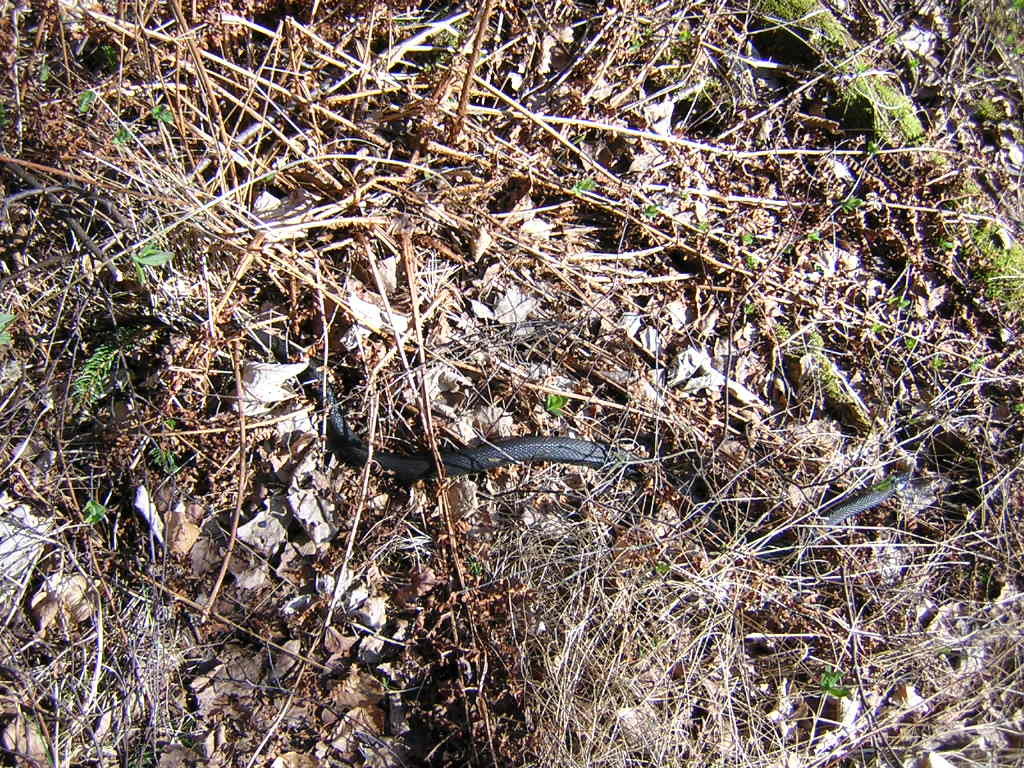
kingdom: Animalia
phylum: Chordata
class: Squamata
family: Colubridae
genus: Natrix
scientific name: Natrix natrix
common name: Grass snake
